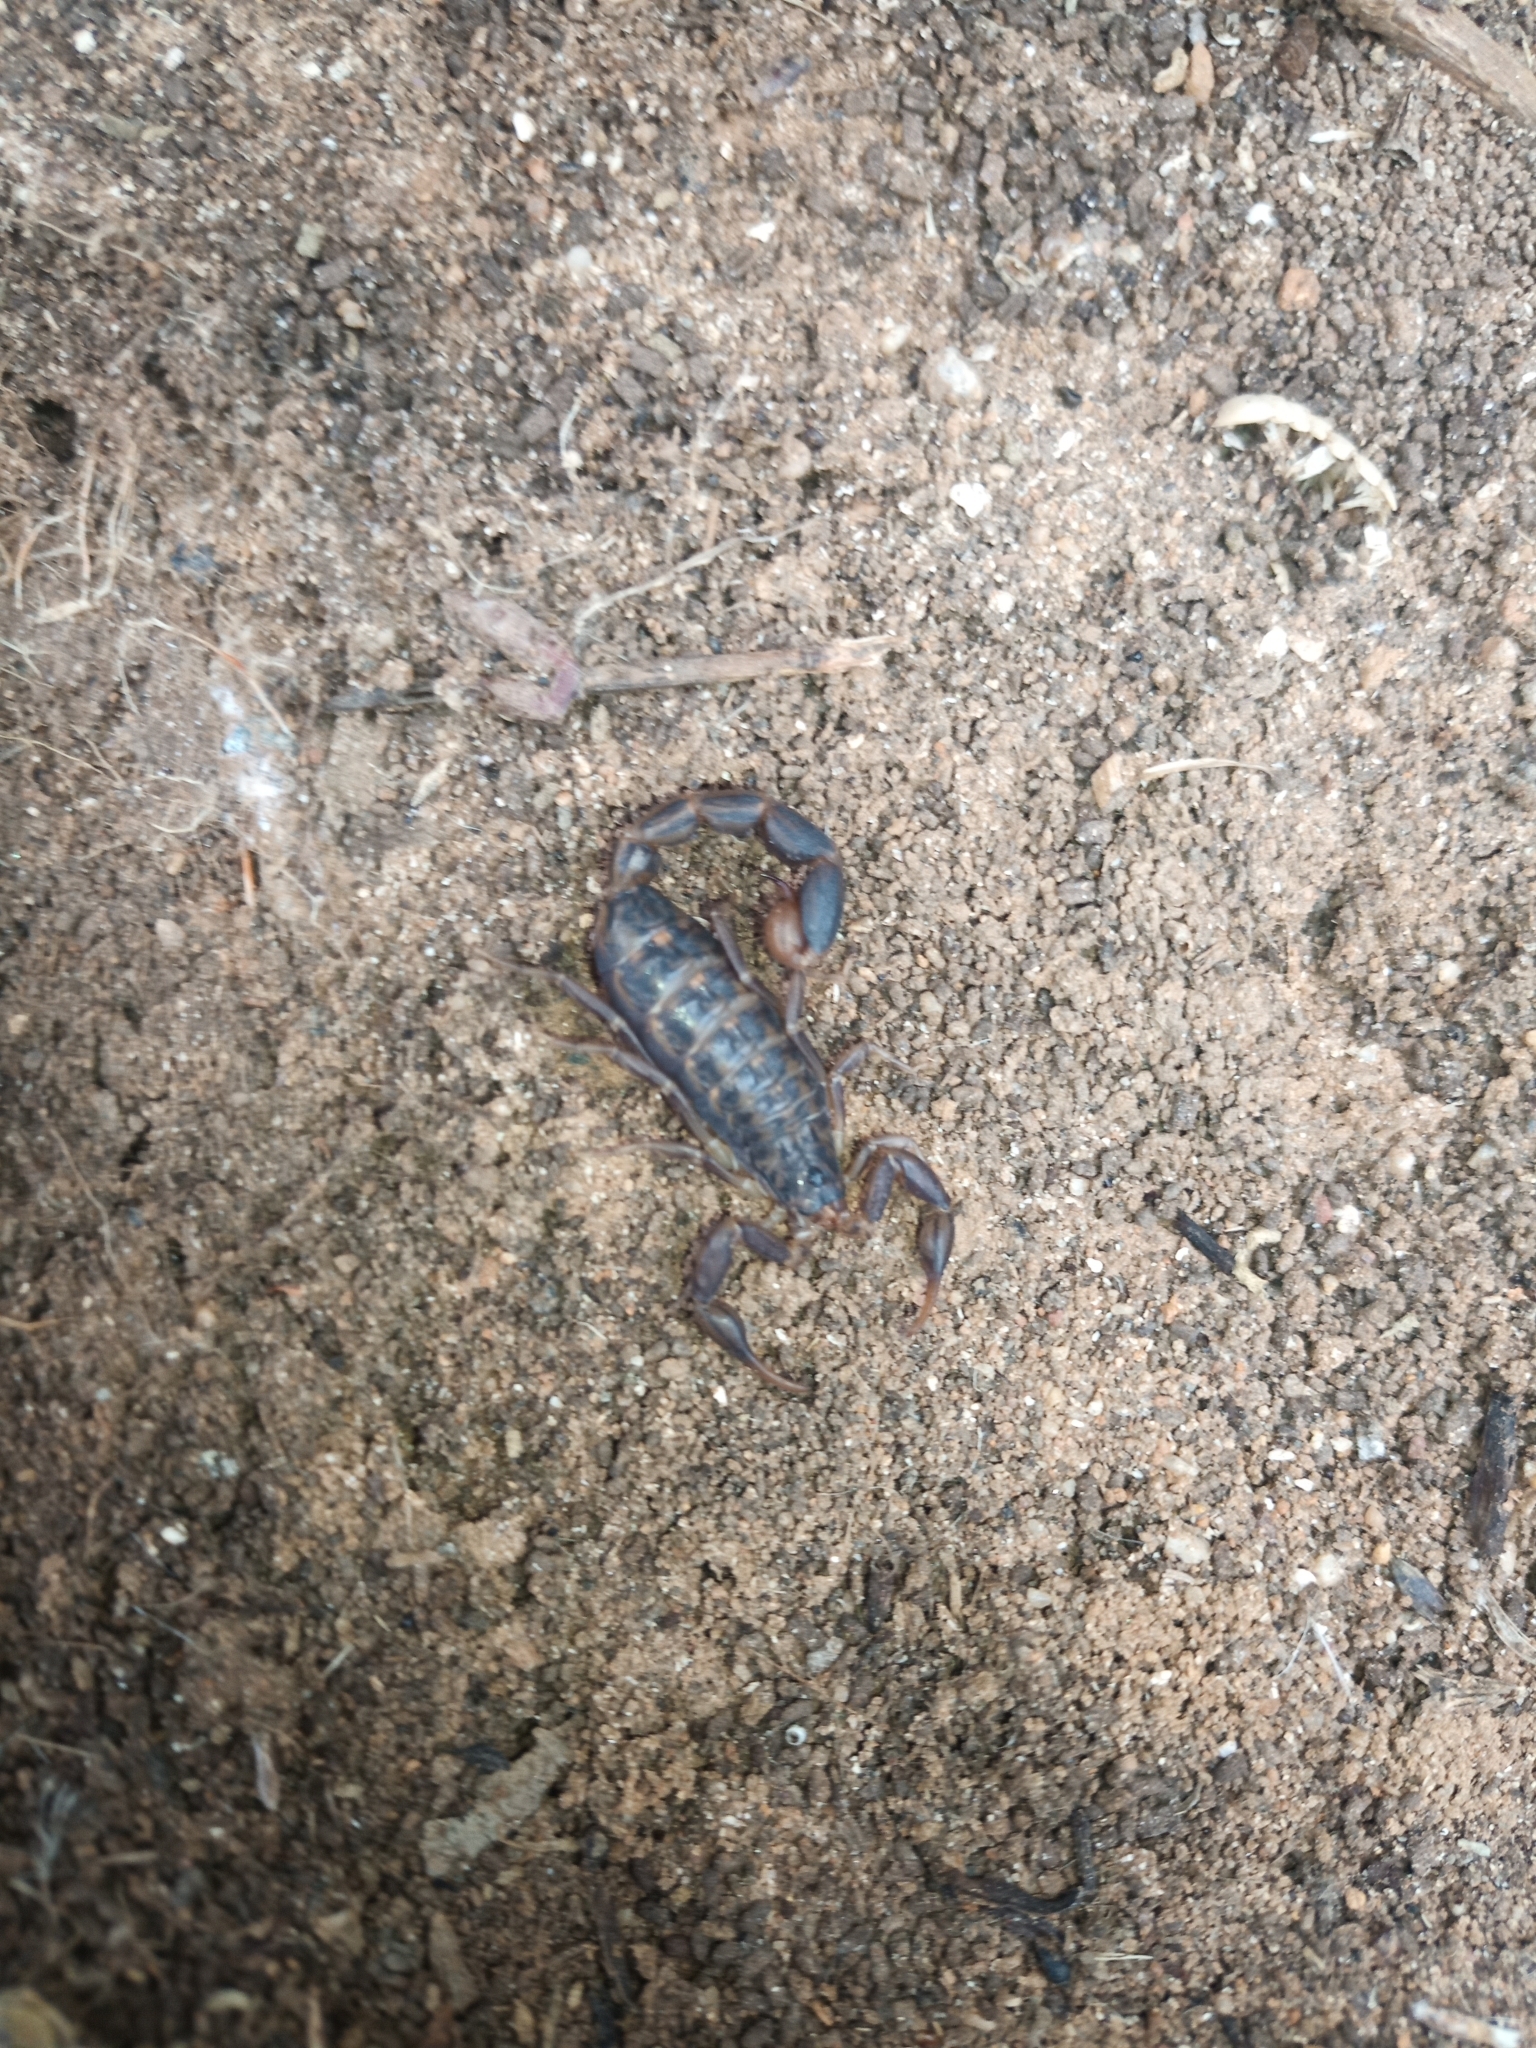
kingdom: Animalia
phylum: Arthropoda
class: Arachnida
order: Scorpiones
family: Buthidae
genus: Uroplectes
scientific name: Uroplectes lineatus
